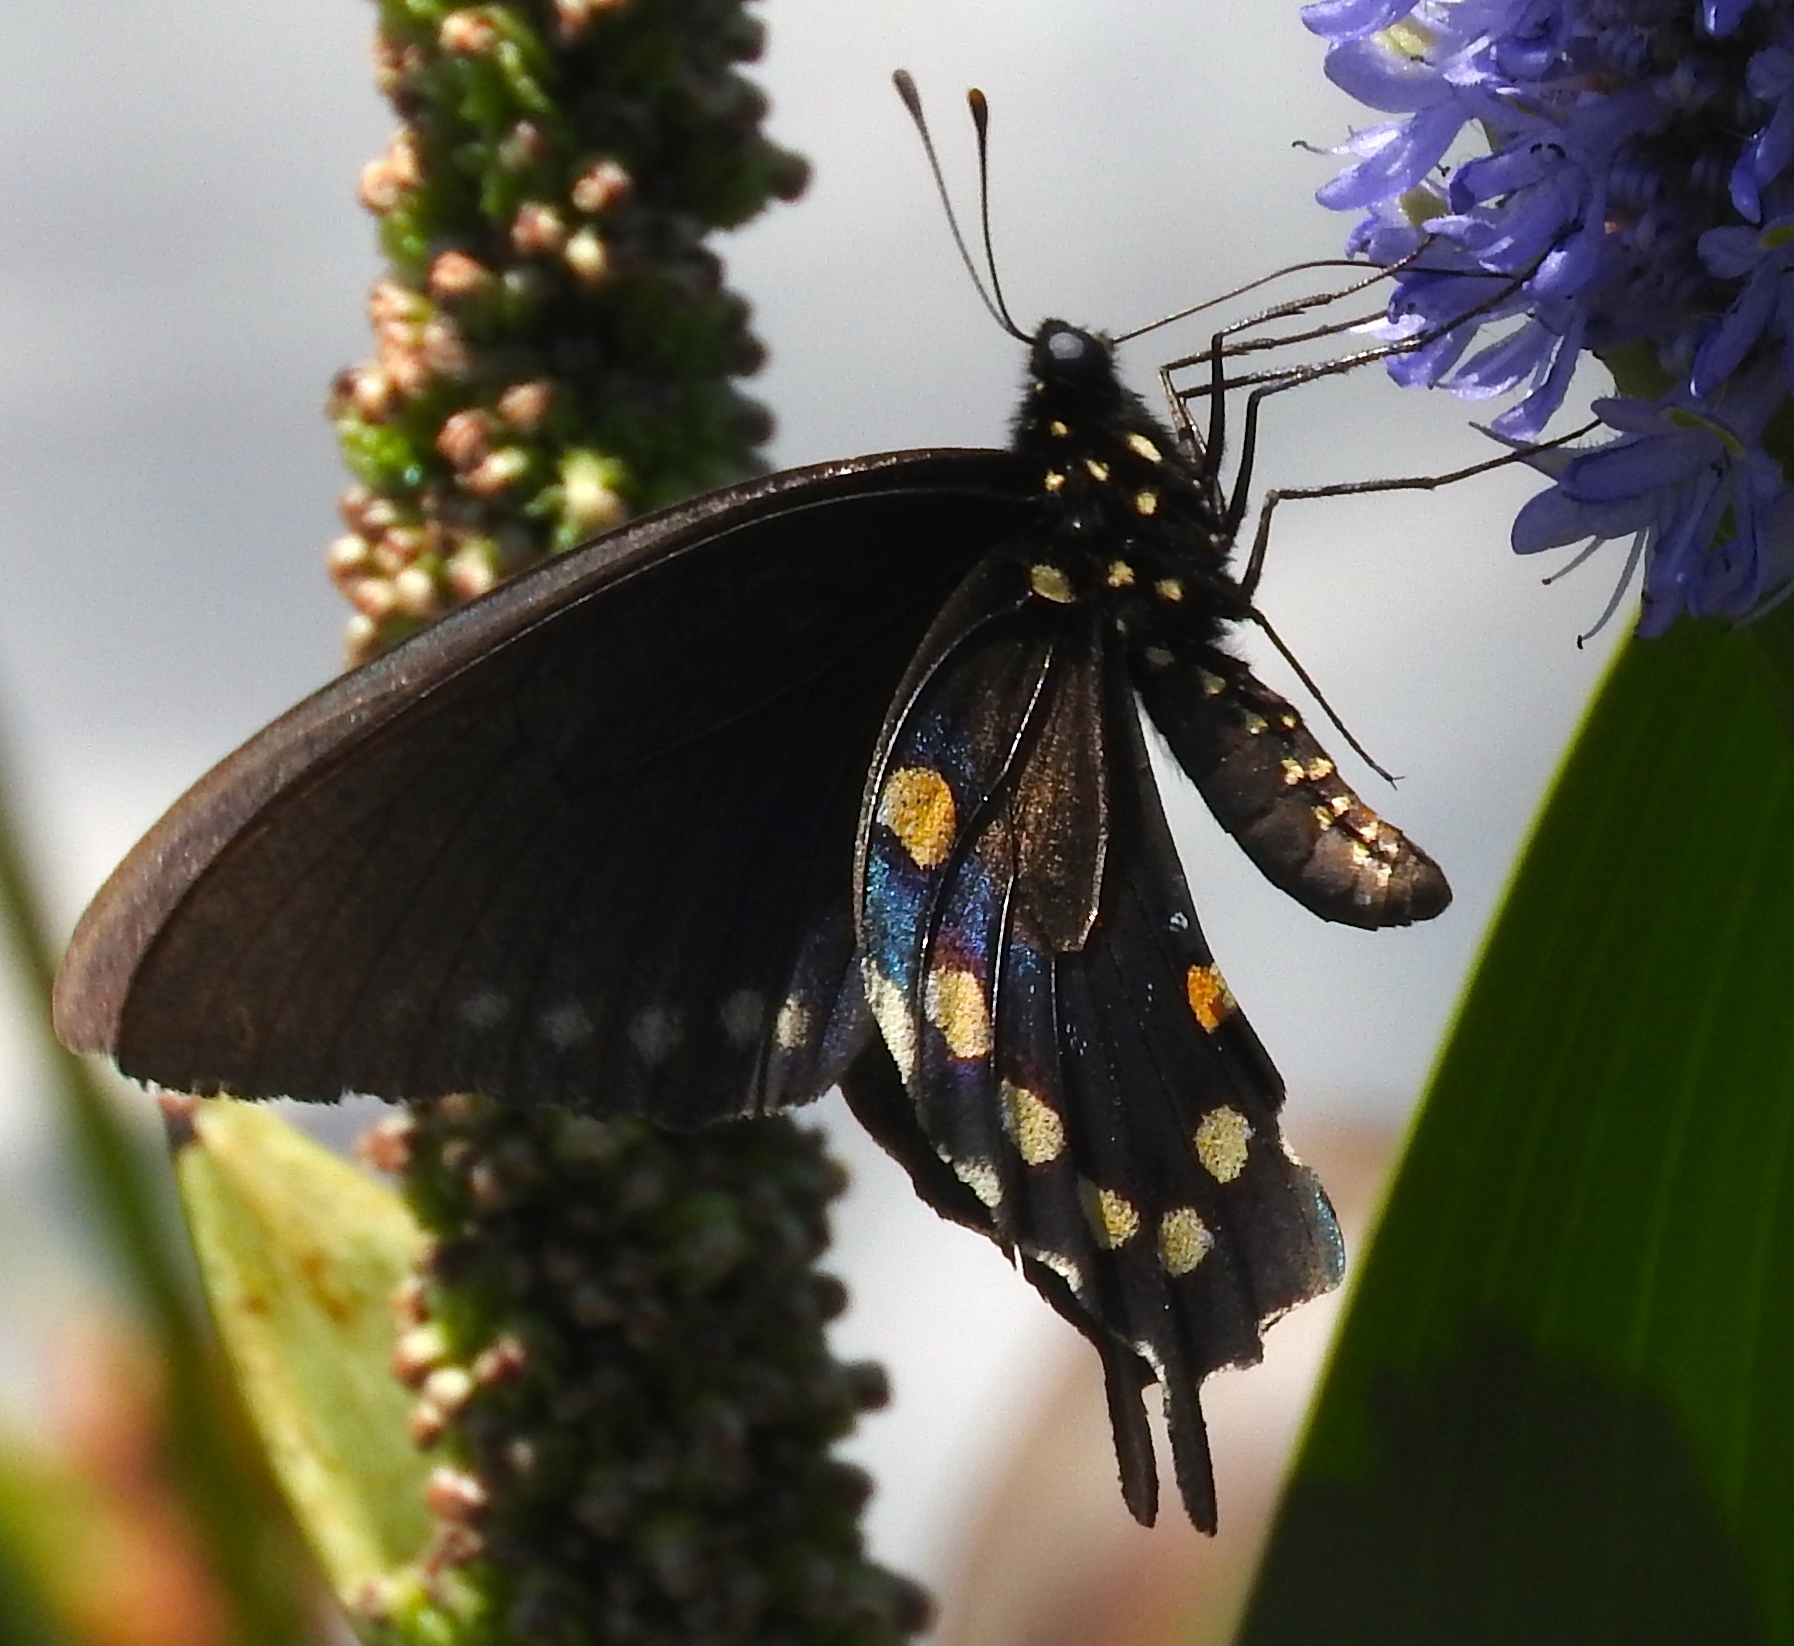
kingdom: Animalia
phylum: Arthropoda
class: Insecta
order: Lepidoptera
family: Papilionidae
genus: Battus
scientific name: Battus philenor
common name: Pipevine swallowtail
